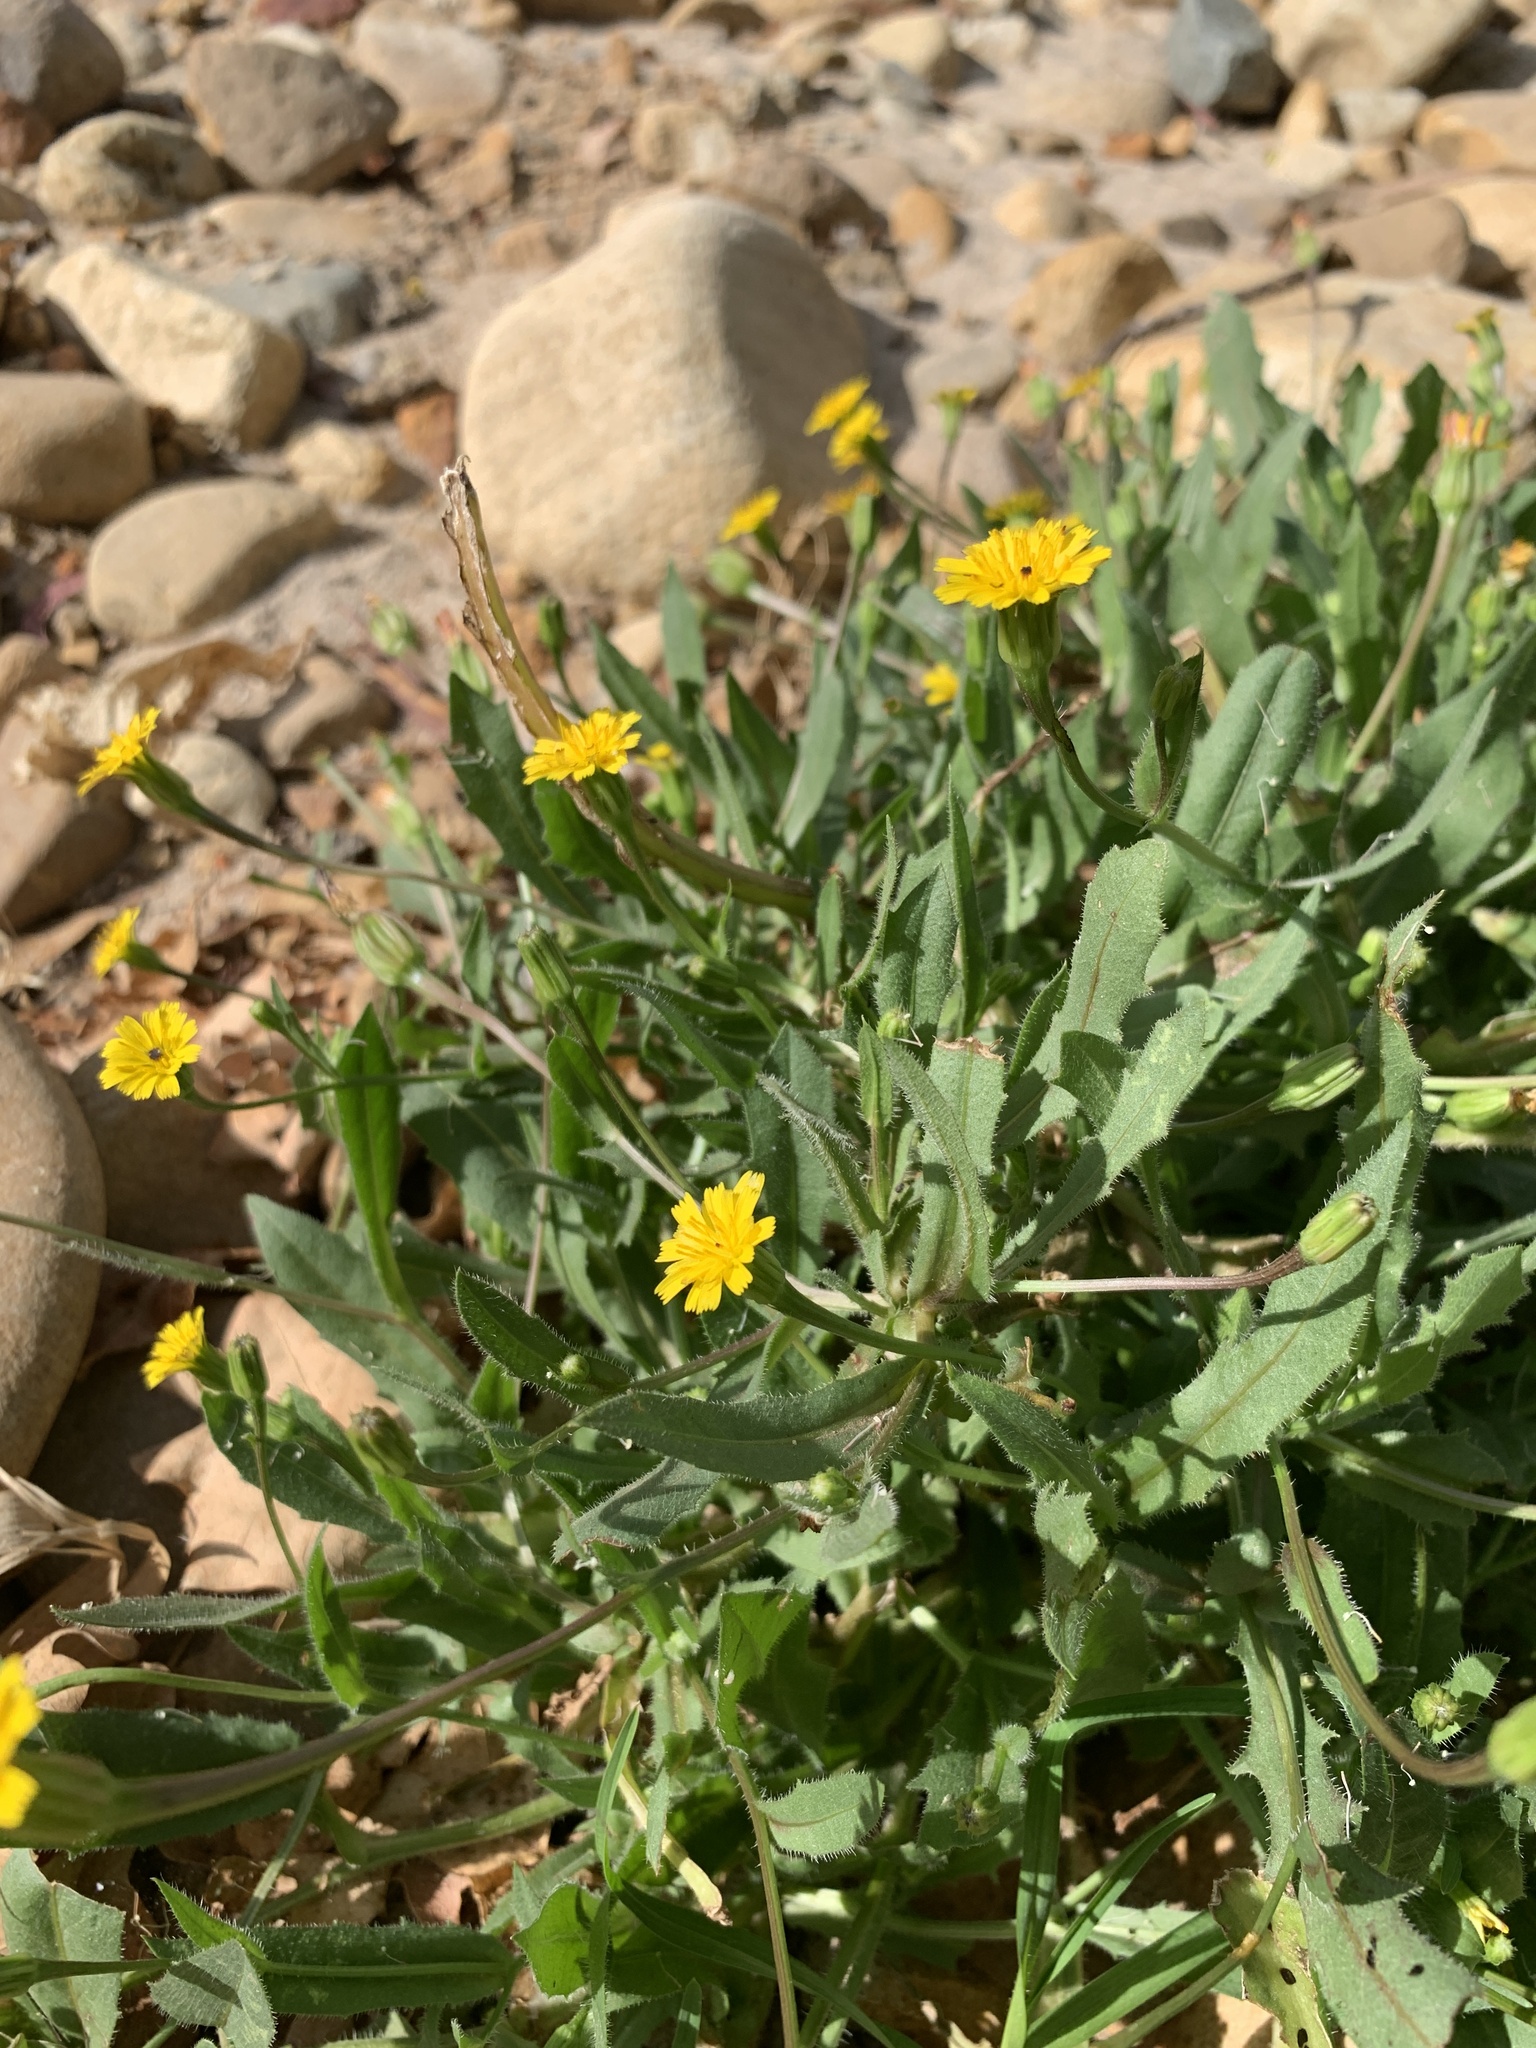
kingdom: Plantae
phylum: Tracheophyta
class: Magnoliopsida
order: Asterales
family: Asteraceae
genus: Hedypnois
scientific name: Hedypnois rhagadioloides
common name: Cretan weed
